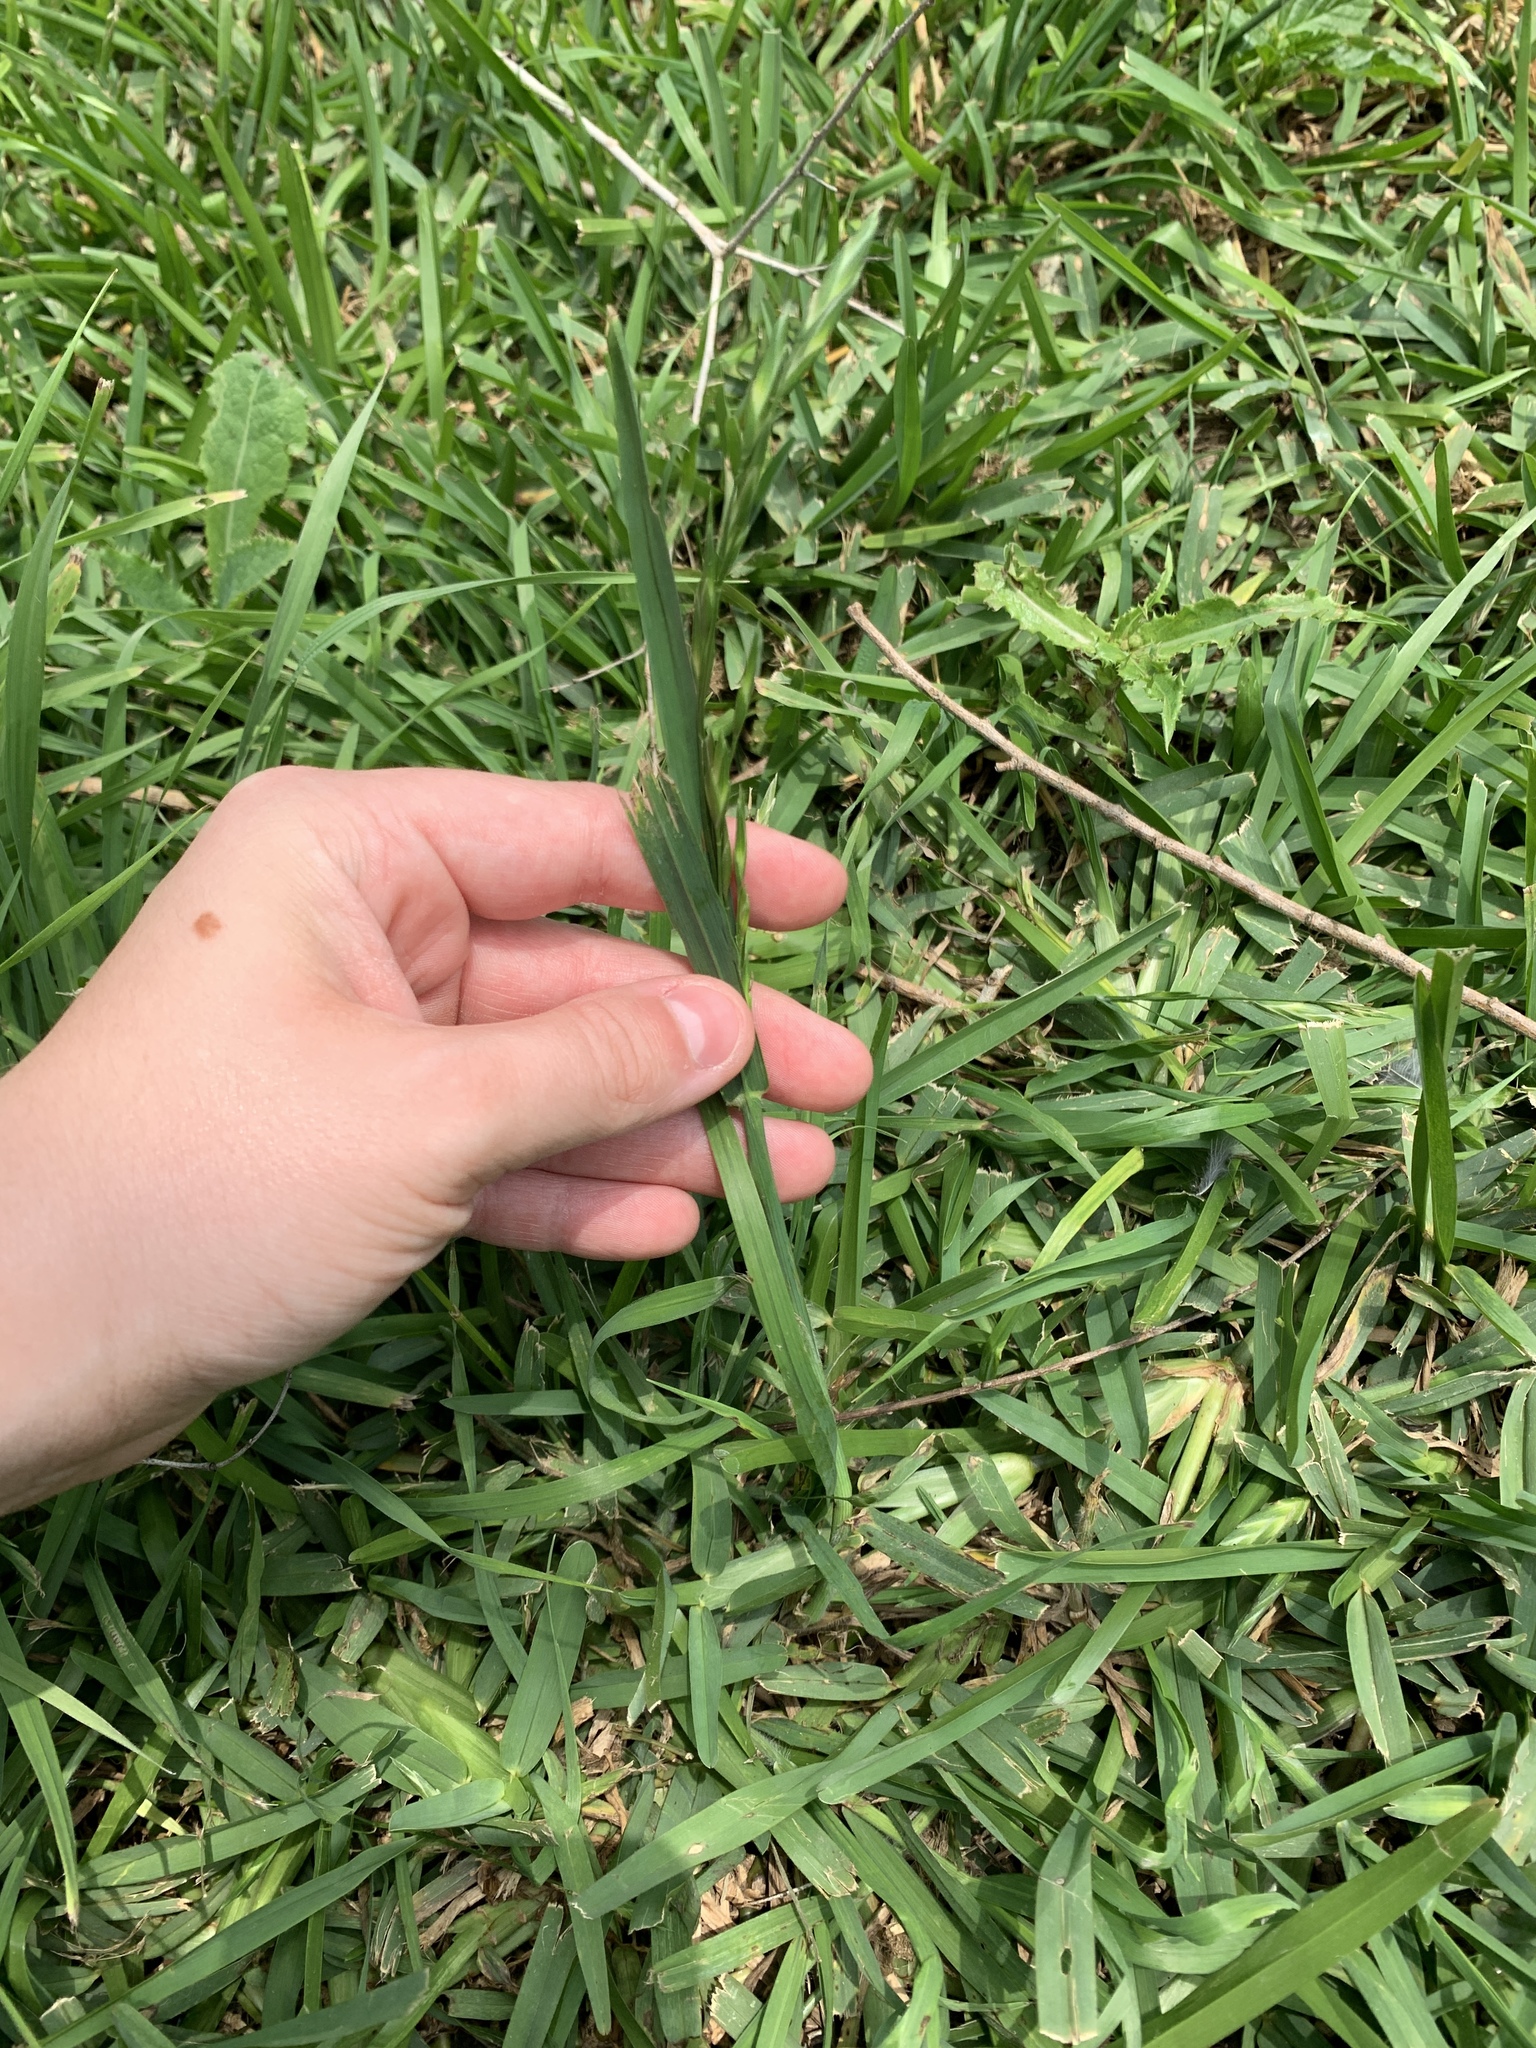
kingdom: Plantae
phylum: Tracheophyta
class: Liliopsida
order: Poales
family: Poaceae
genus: Bromus
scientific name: Bromus catharticus
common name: Rescuegrass
